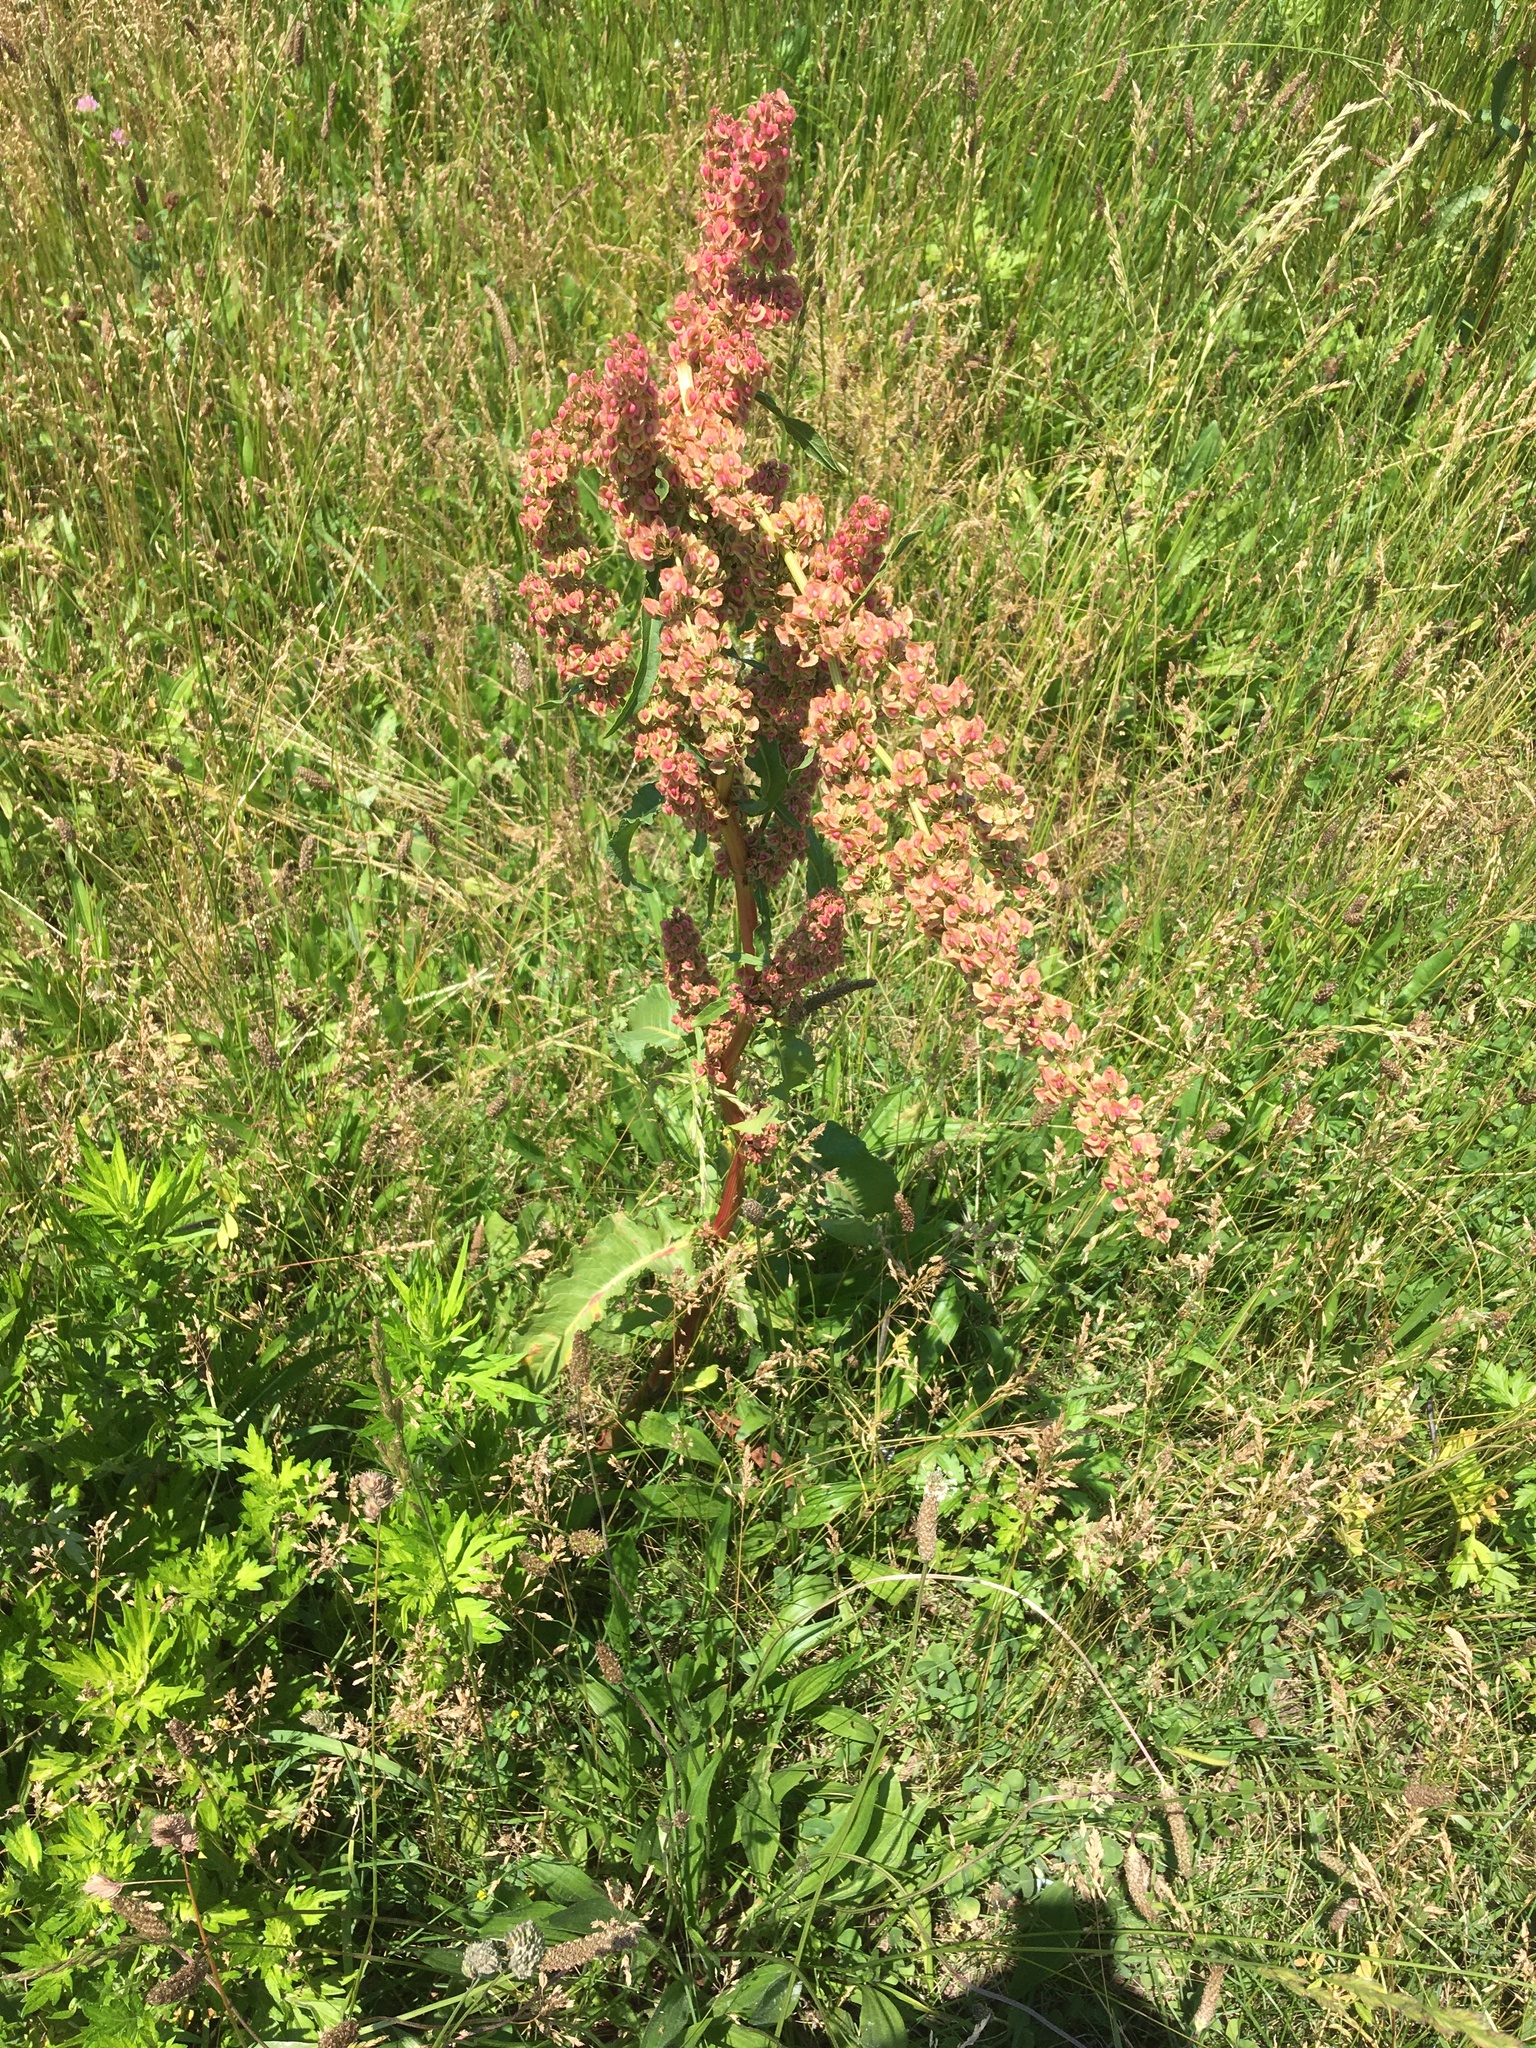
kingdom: Plantae
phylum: Tracheophyta
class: Magnoliopsida
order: Caryophyllales
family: Polygonaceae
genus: Rumex
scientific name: Rumex crispus
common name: Curled dock
